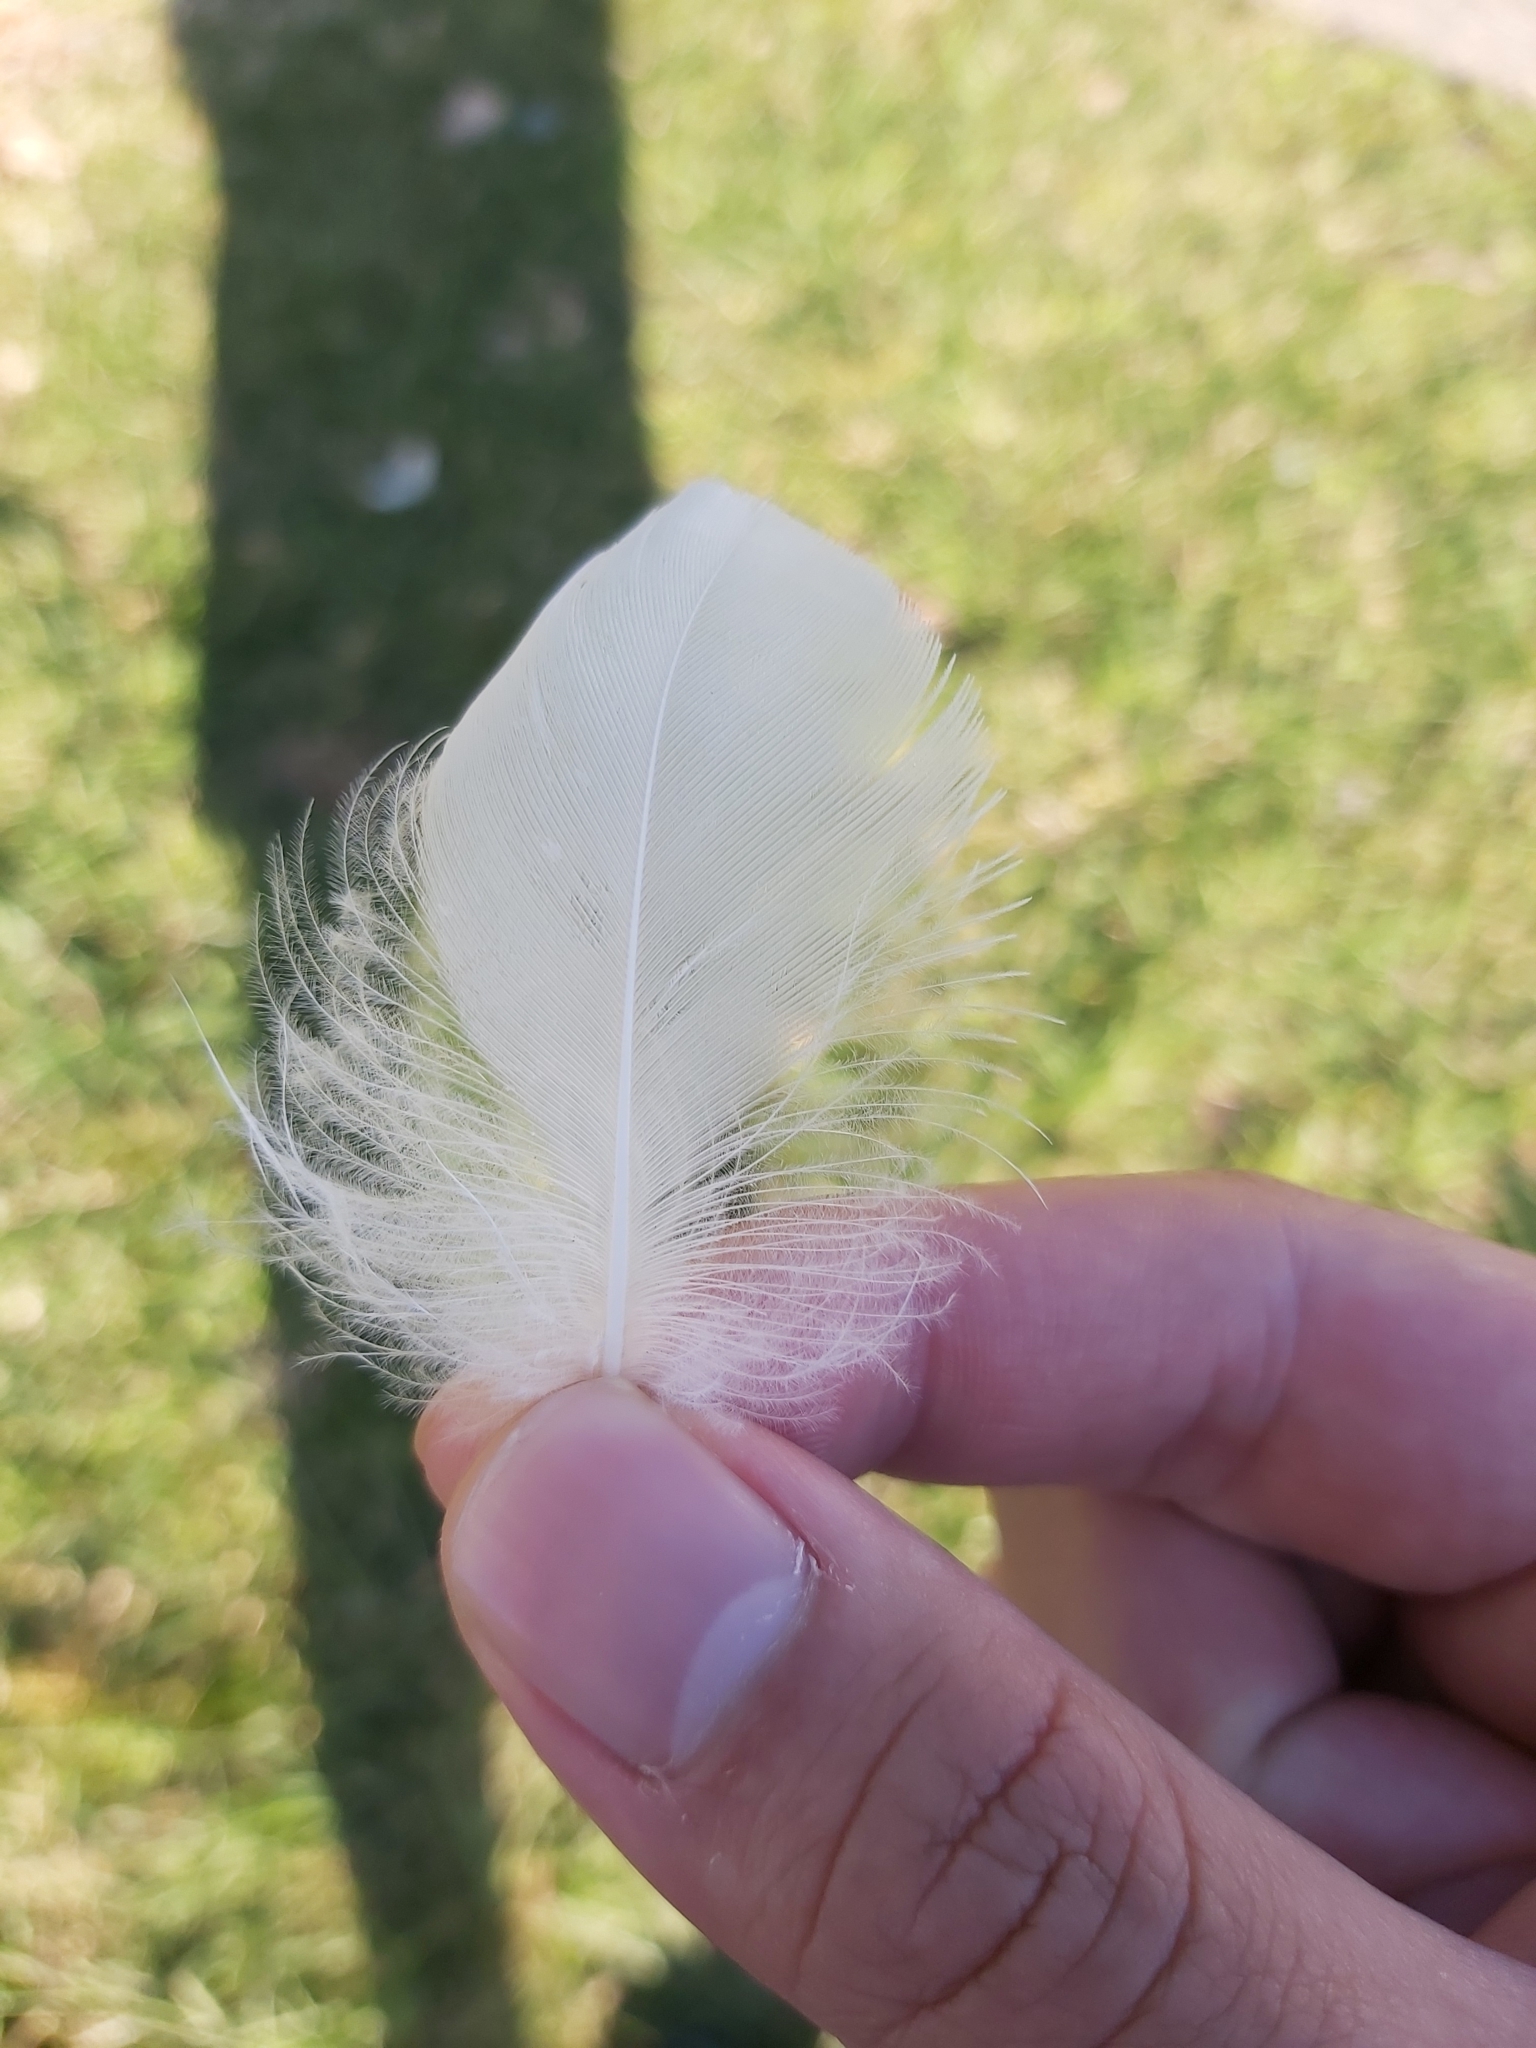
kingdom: Animalia
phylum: Chordata
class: Aves
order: Pelecaniformes
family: Threskiornithidae
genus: Threskiornis
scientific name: Threskiornis molucca
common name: Australian white ibis
